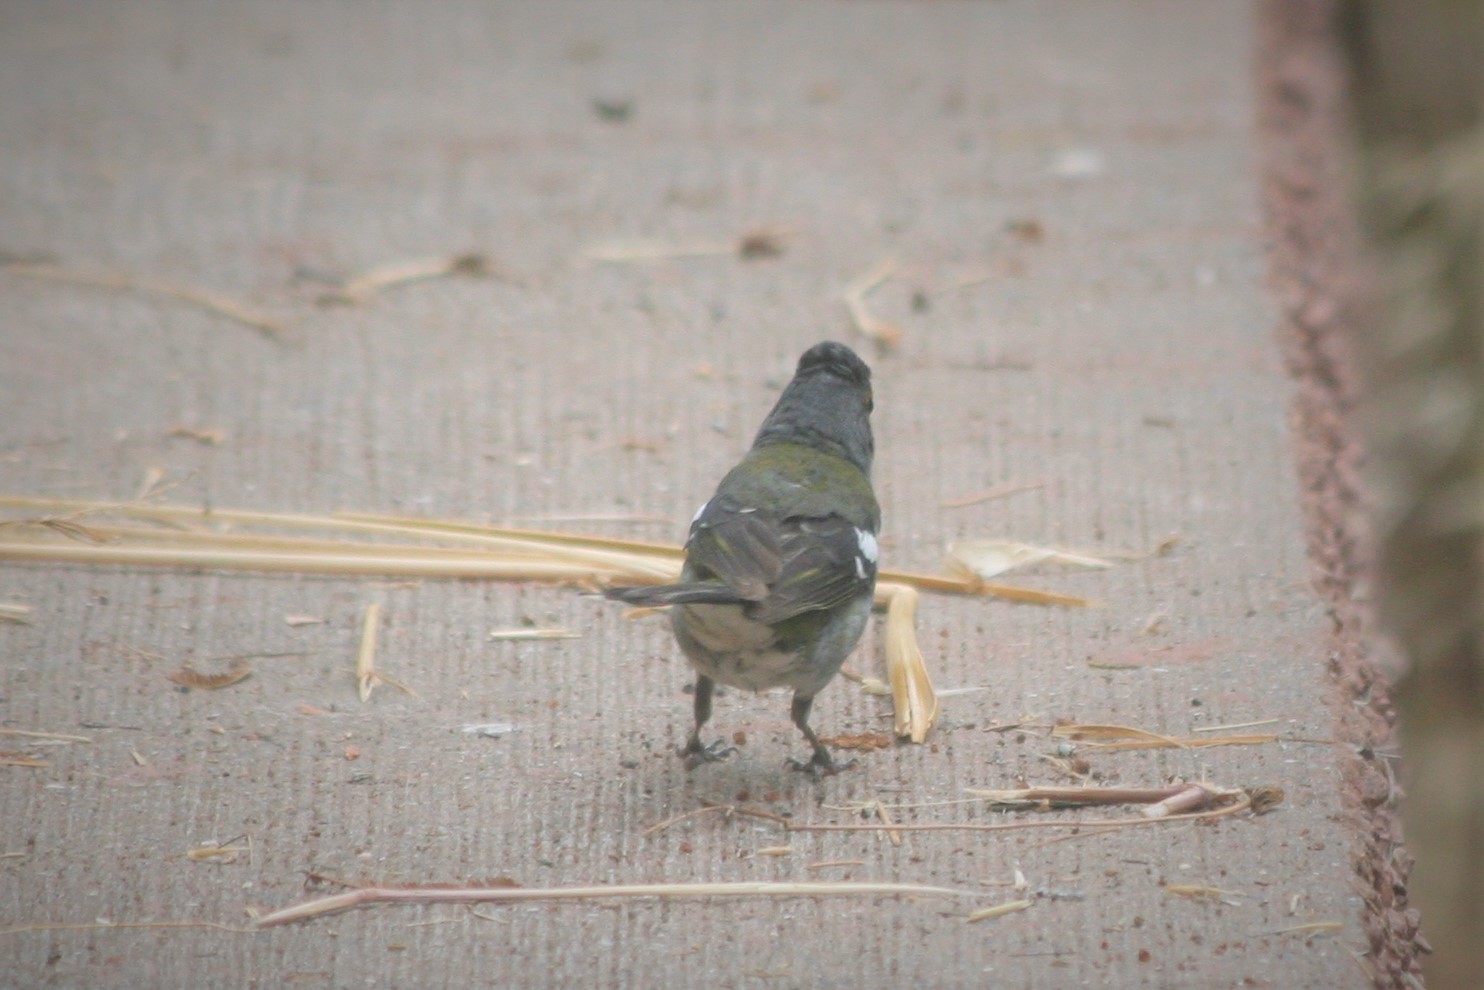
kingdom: Animalia
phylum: Chordata
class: Aves
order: Passeriformes
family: Fringillidae
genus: Fringilla
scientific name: Fringilla maderensis
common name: Madeira chaffinch
